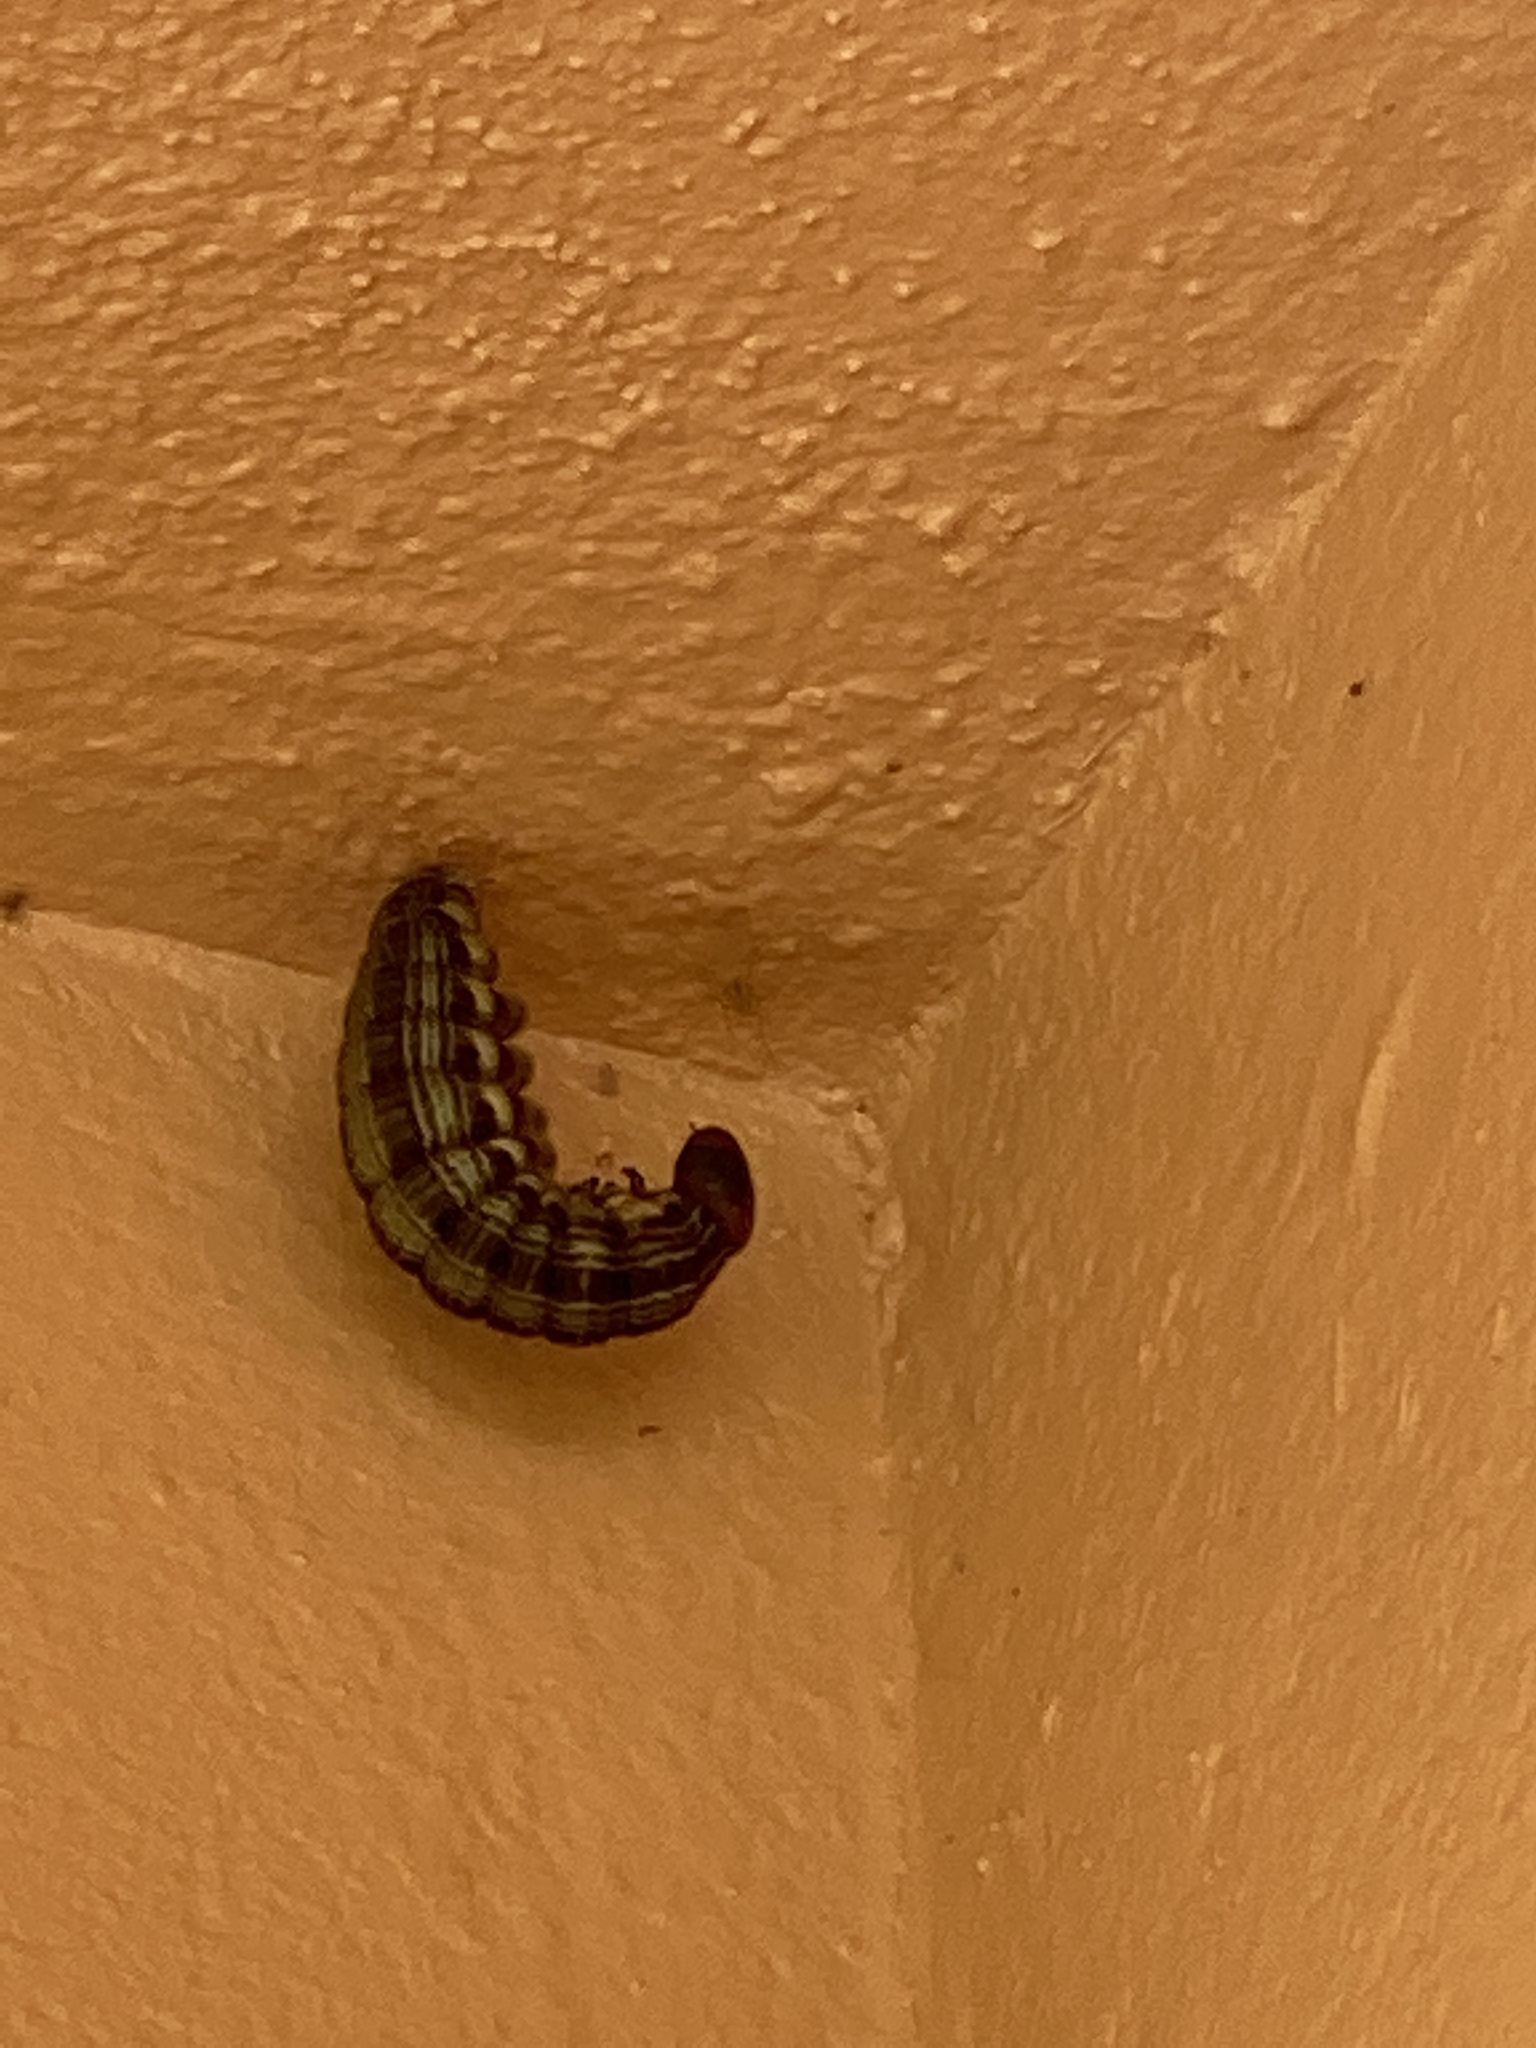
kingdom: Animalia
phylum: Arthropoda
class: Insecta
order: Lepidoptera
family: Nymphalidae
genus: Brassolis
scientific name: Brassolis sophorae
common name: Coconut caterpillar
